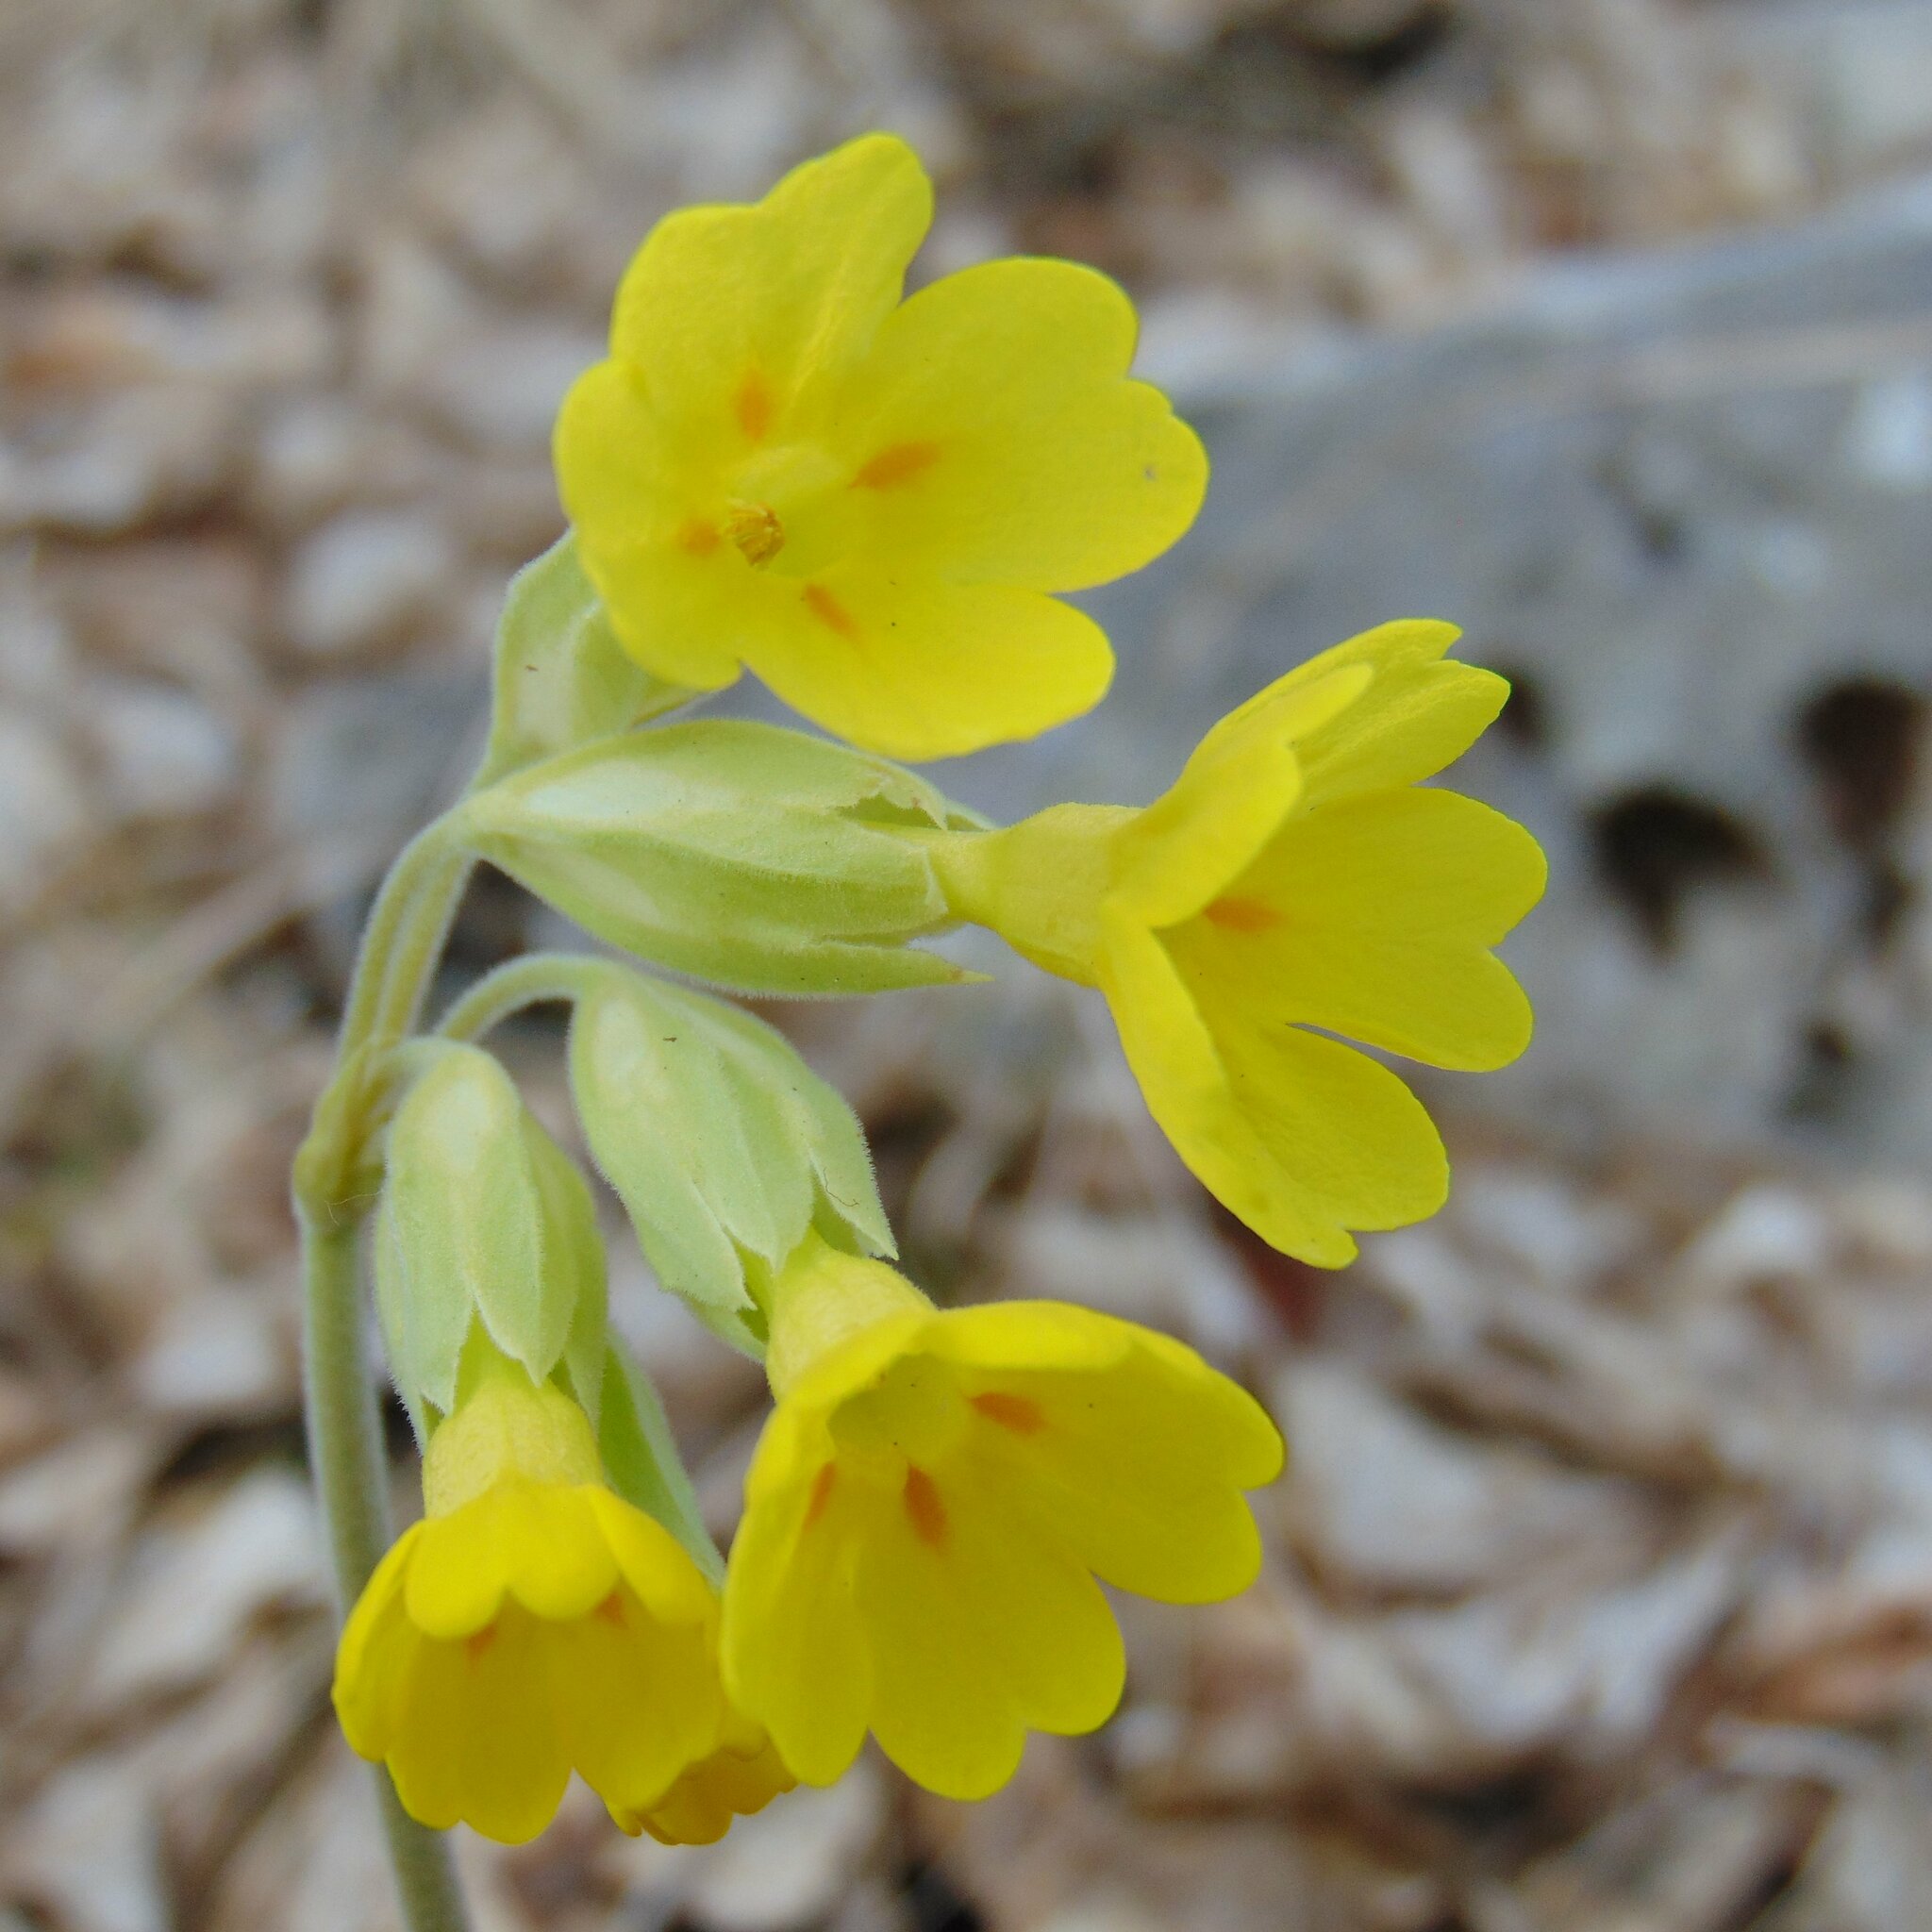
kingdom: Plantae
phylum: Tracheophyta
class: Magnoliopsida
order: Ericales
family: Primulaceae
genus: Primula
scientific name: Primula veris
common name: Cowslip
